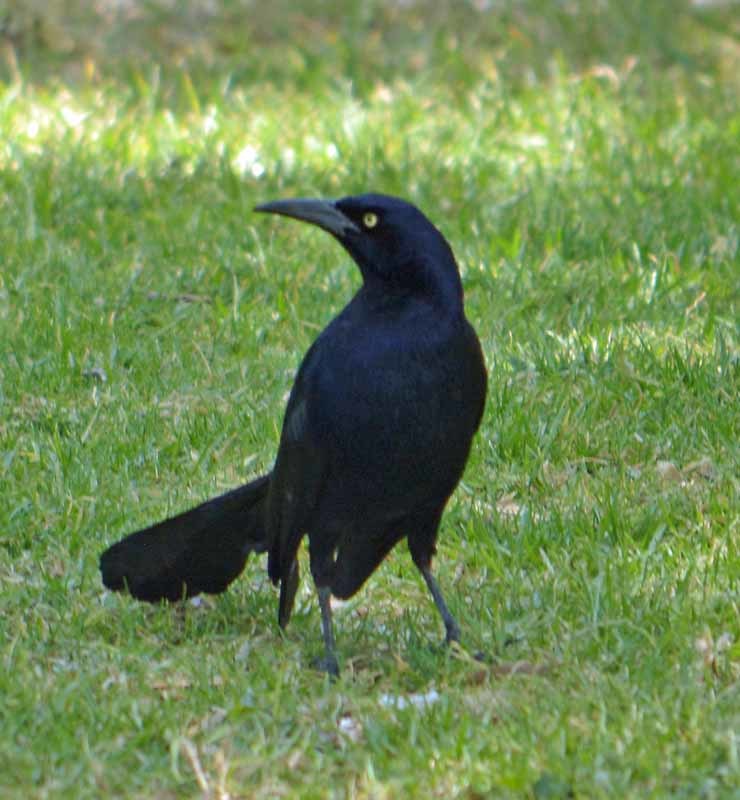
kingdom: Animalia
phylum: Chordata
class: Aves
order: Passeriformes
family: Icteridae
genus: Quiscalus
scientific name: Quiscalus mexicanus
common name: Great-tailed grackle
